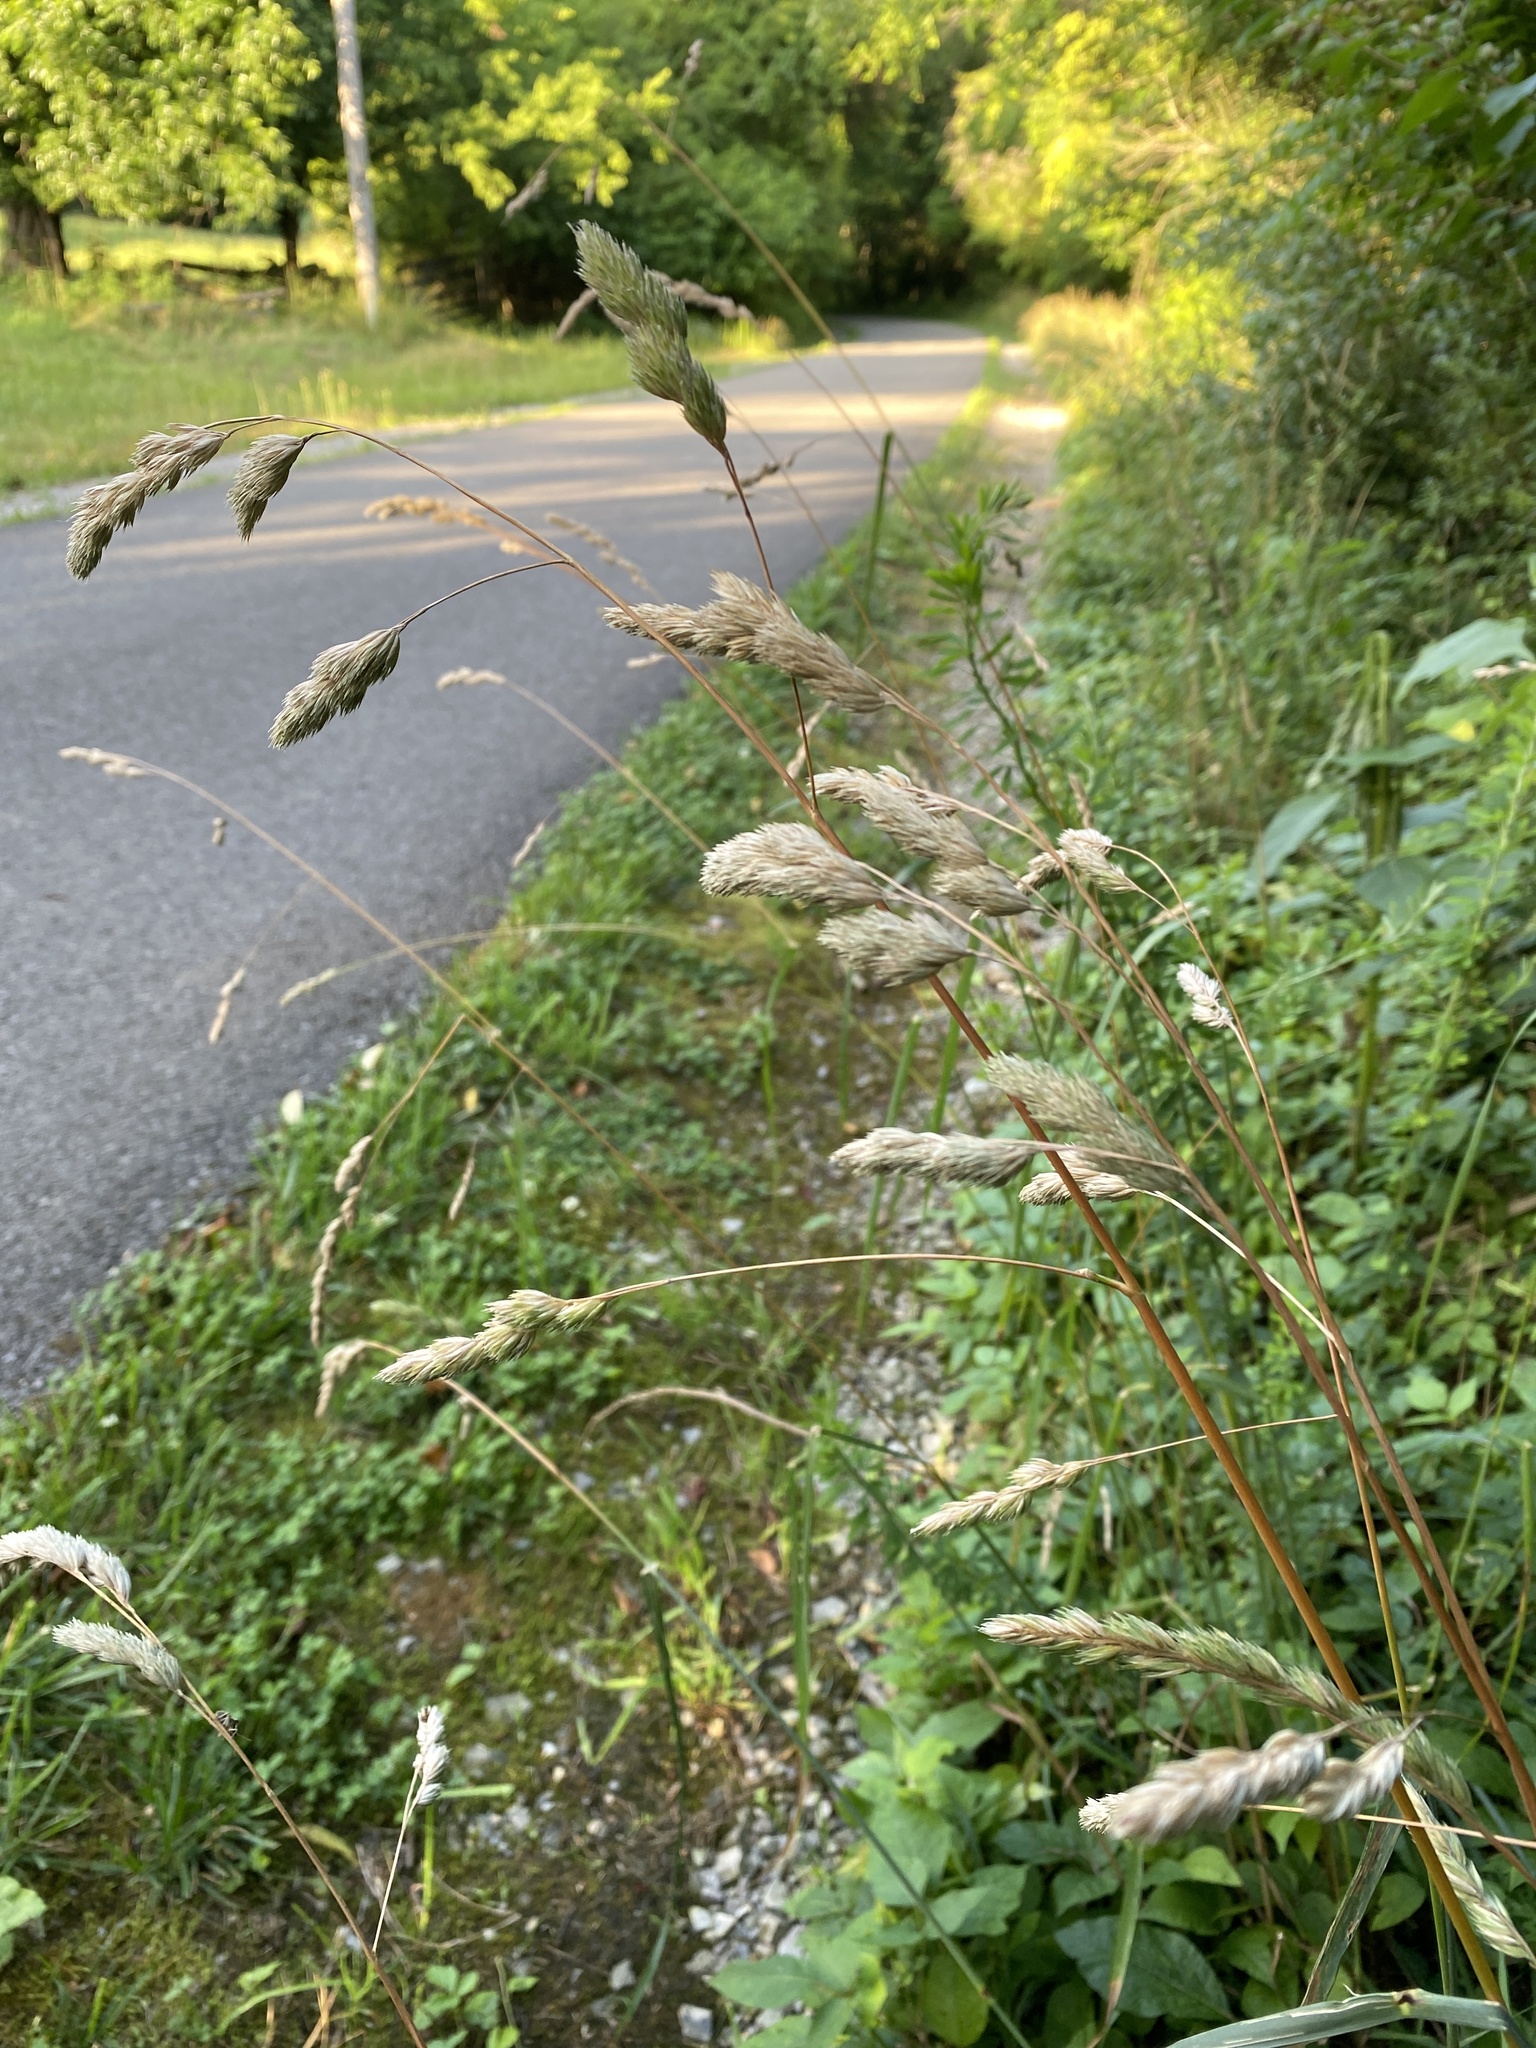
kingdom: Plantae
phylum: Tracheophyta
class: Liliopsida
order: Poales
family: Poaceae
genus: Dactylis
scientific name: Dactylis glomerata
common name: Orchardgrass
